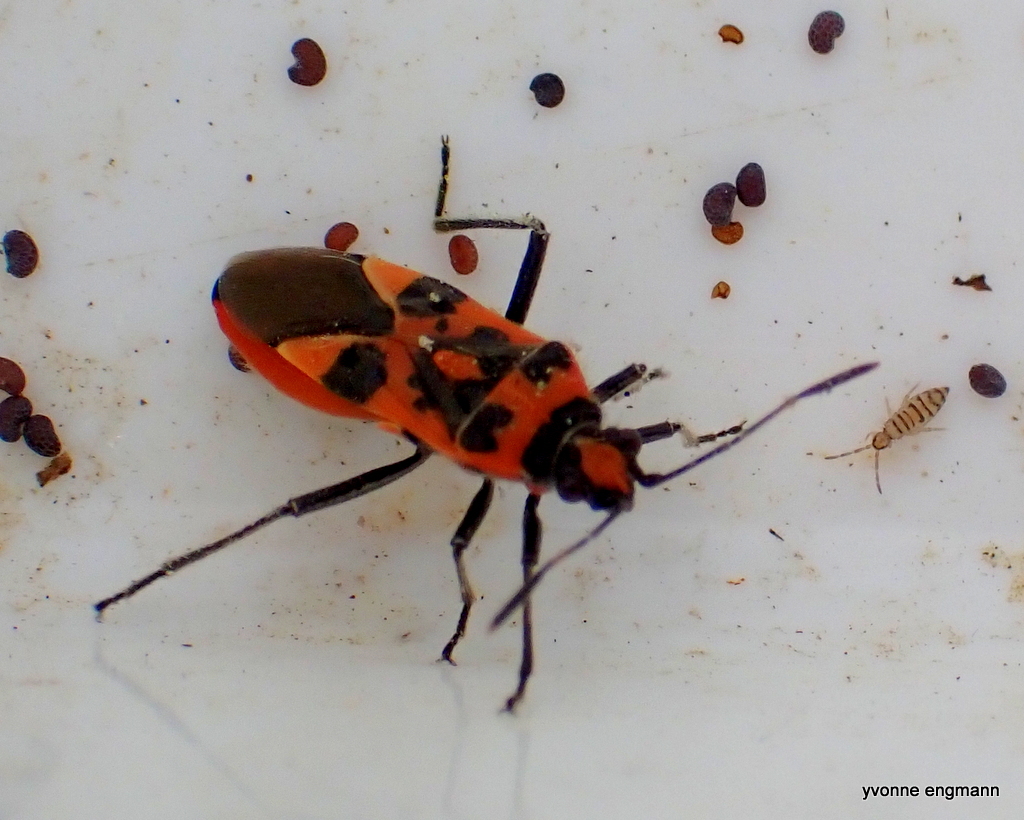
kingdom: Animalia
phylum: Arthropoda
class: Insecta
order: Hemiptera
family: Rhopalidae
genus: Corizus
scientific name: Corizus hyoscyami
